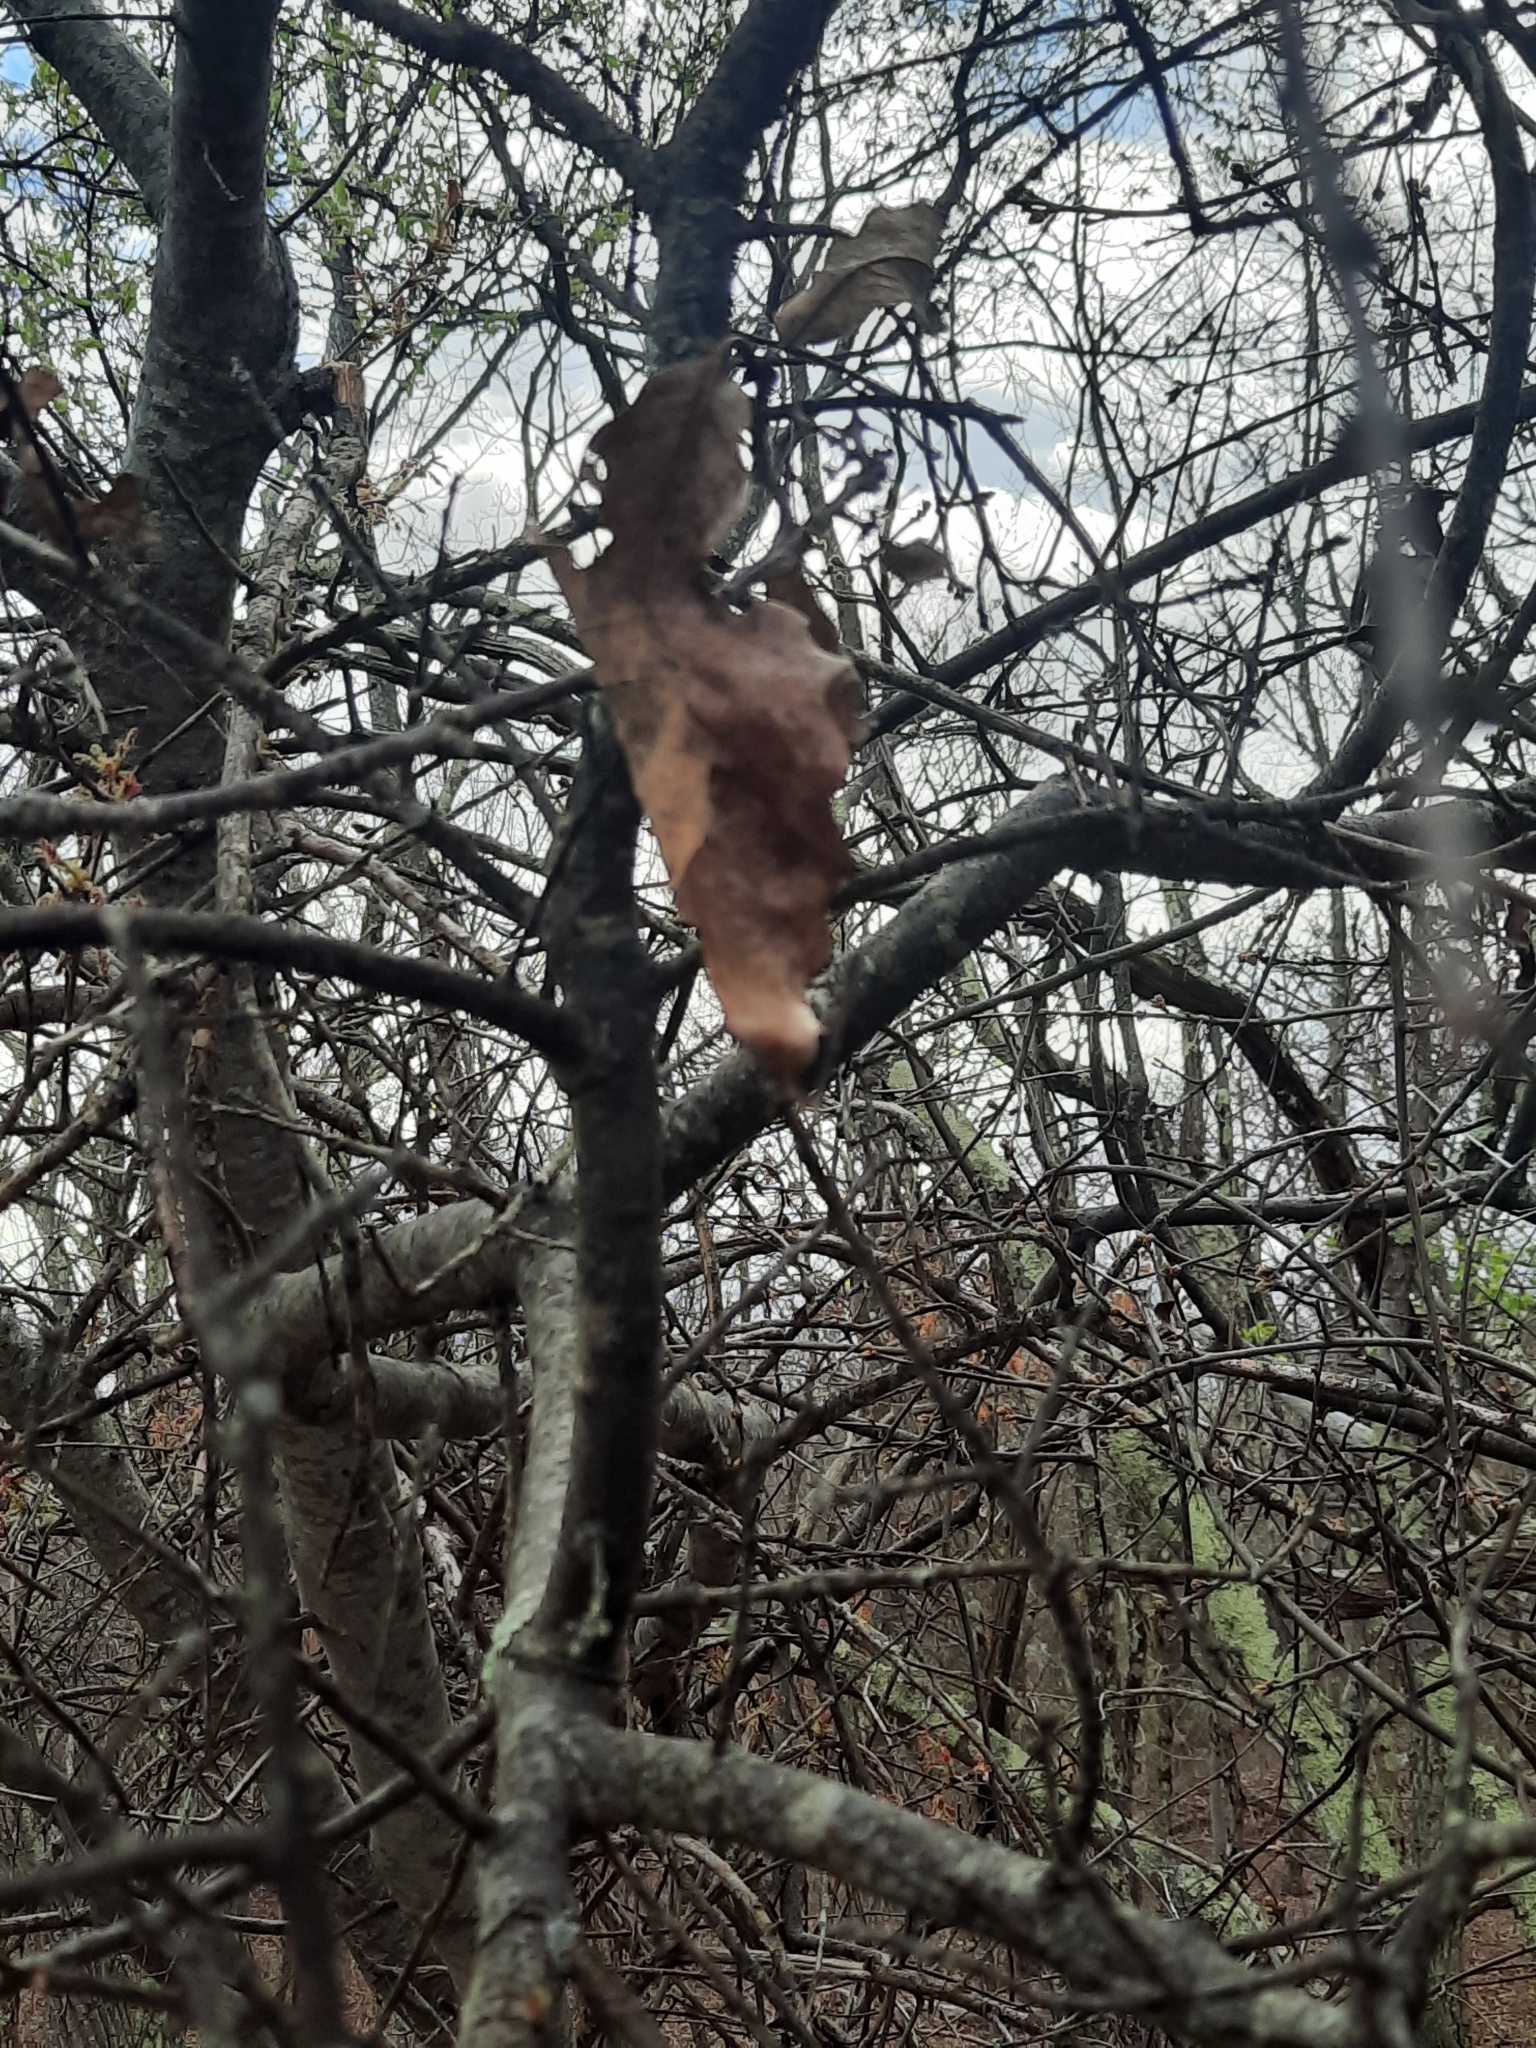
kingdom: Plantae
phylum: Tracheophyta
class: Magnoliopsida
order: Fagales
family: Fagaceae
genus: Quercus
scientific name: Quercus ilicifolia
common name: Bear oak
